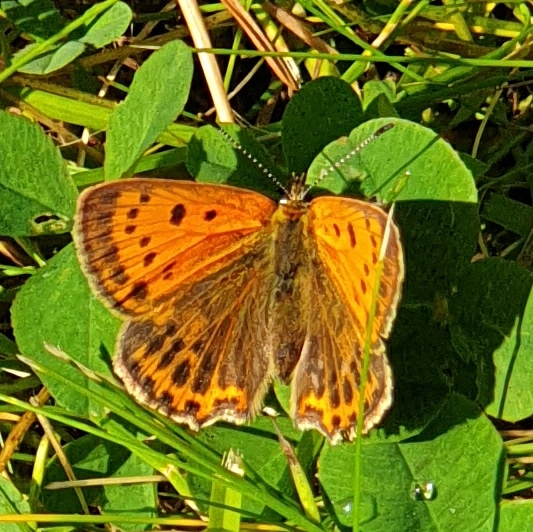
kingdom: Animalia
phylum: Arthropoda
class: Insecta
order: Lepidoptera
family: Lycaenidae
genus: Lycaena
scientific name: Lycaena virgaureae
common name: Scarce copper
